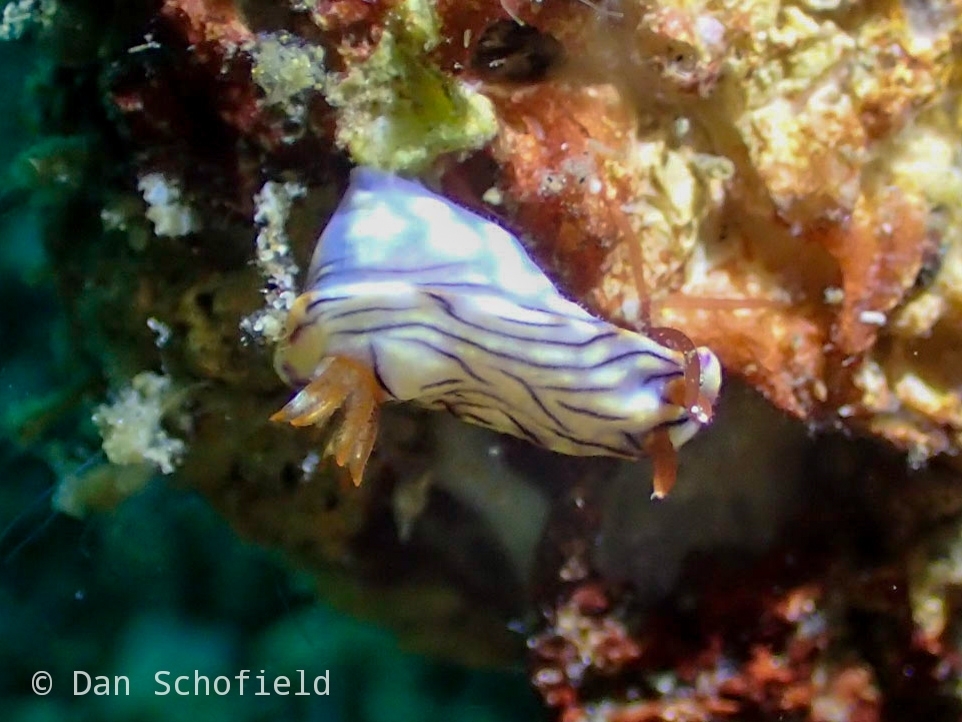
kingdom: Animalia
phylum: Mollusca
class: Gastropoda
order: Nudibranchia
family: Chromodorididae
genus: Hypselodoris
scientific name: Hypselodoris zephyra
